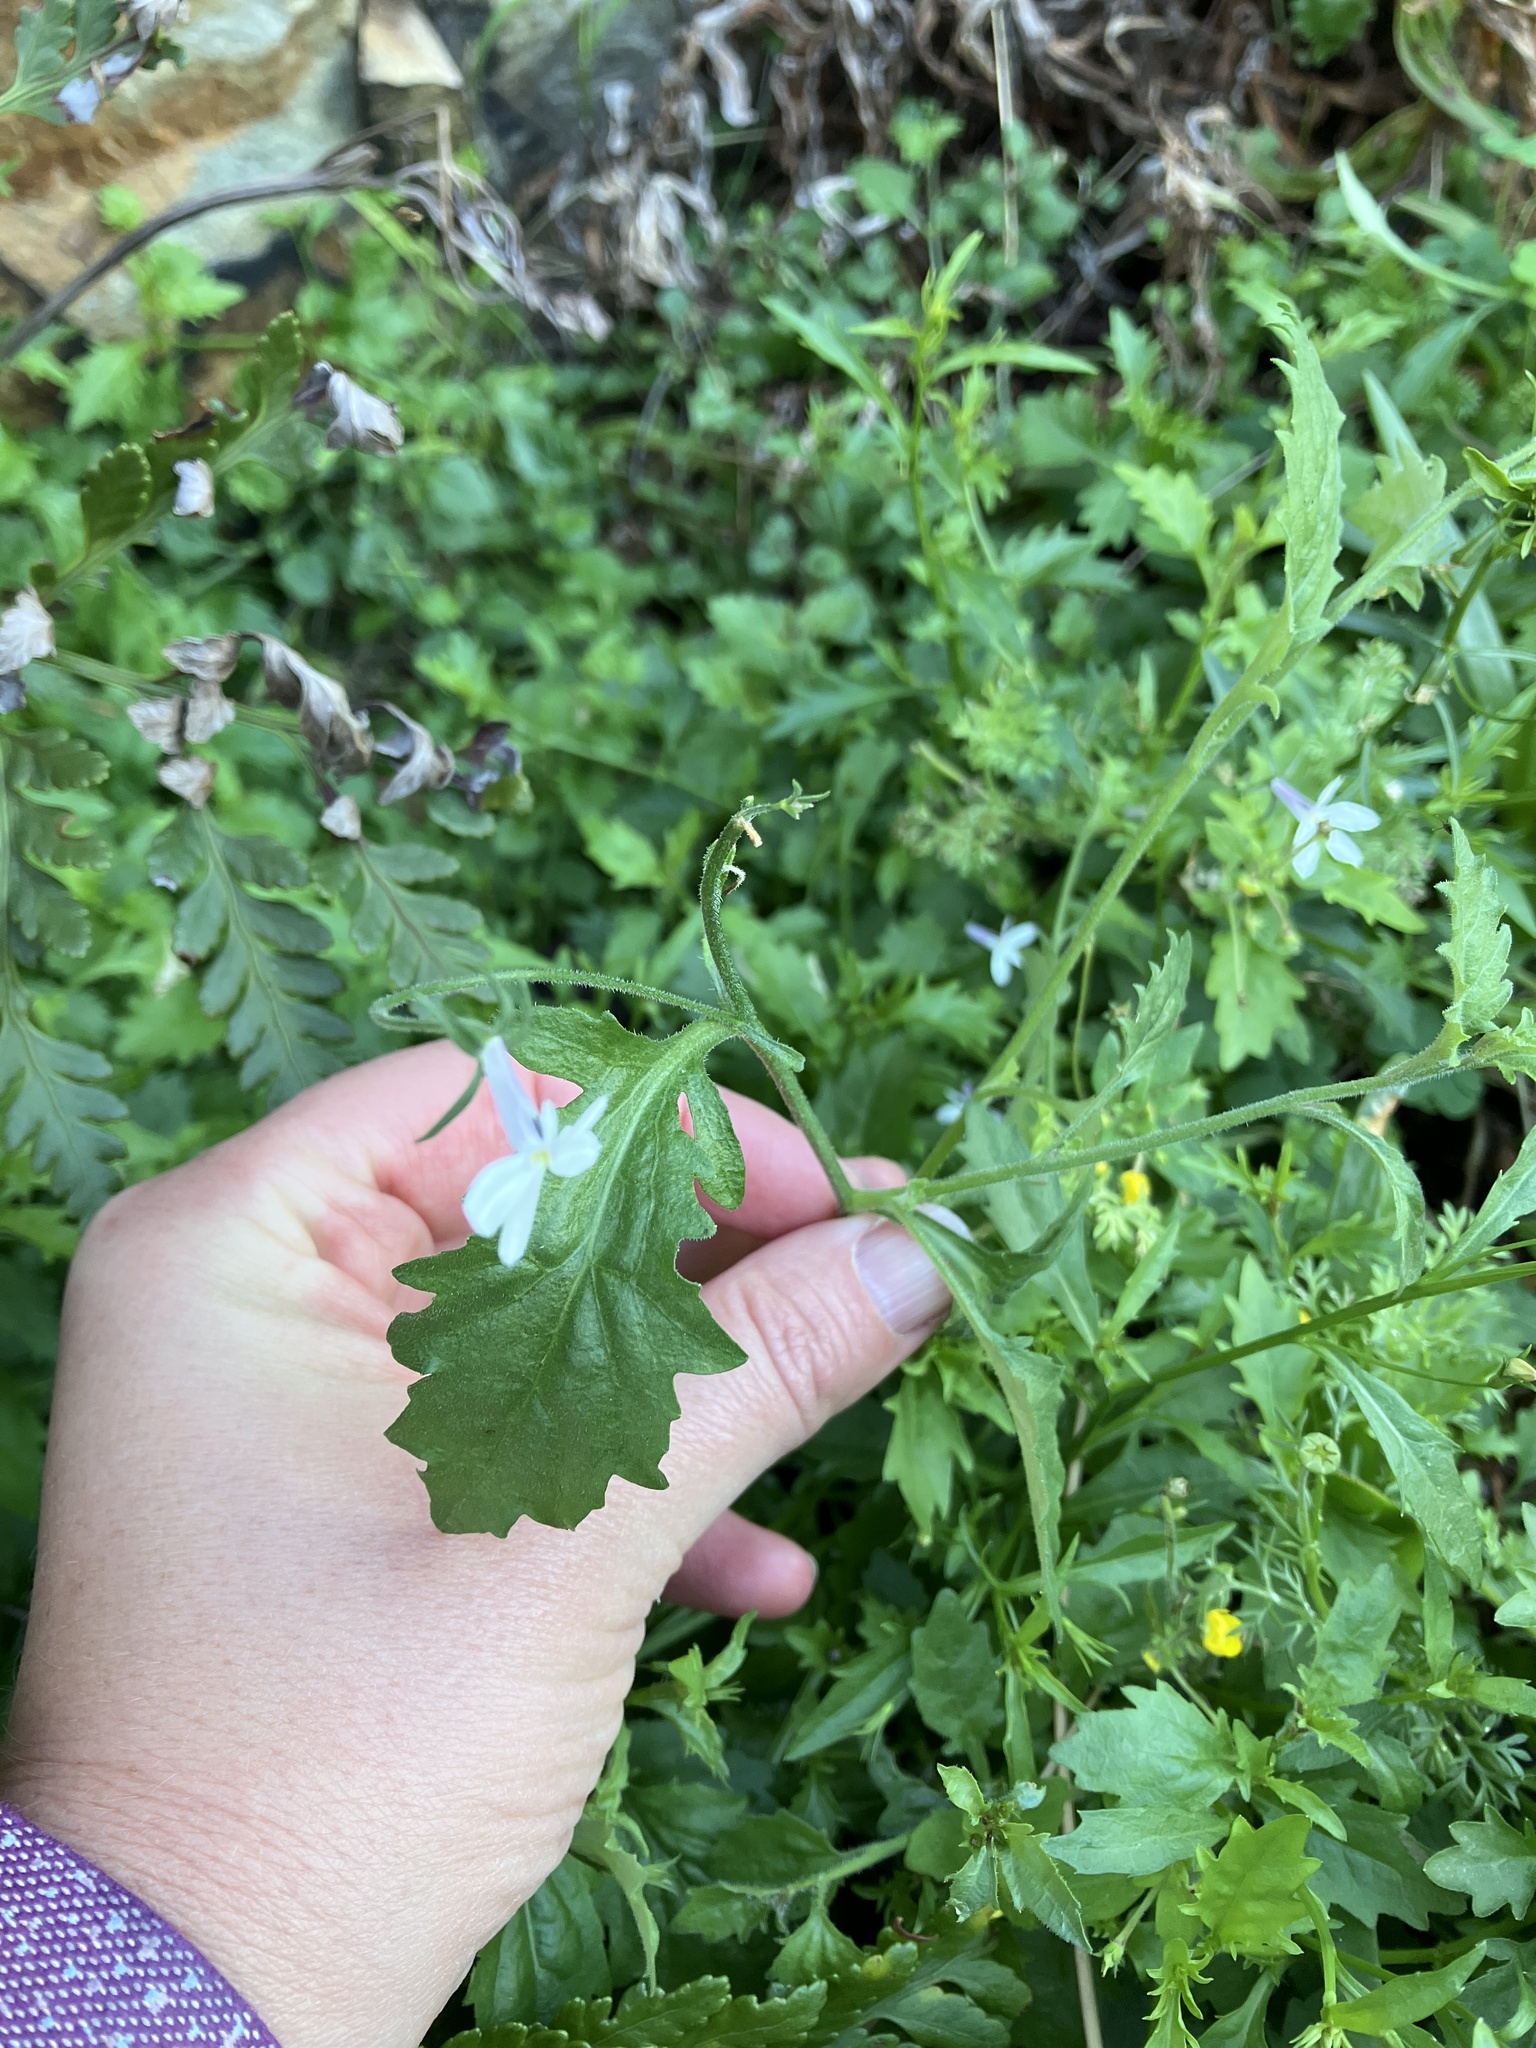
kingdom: Plantae
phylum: Tracheophyta
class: Magnoliopsida
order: Asterales
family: Campanulaceae
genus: Lobelia
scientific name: Lobelia pubescens
